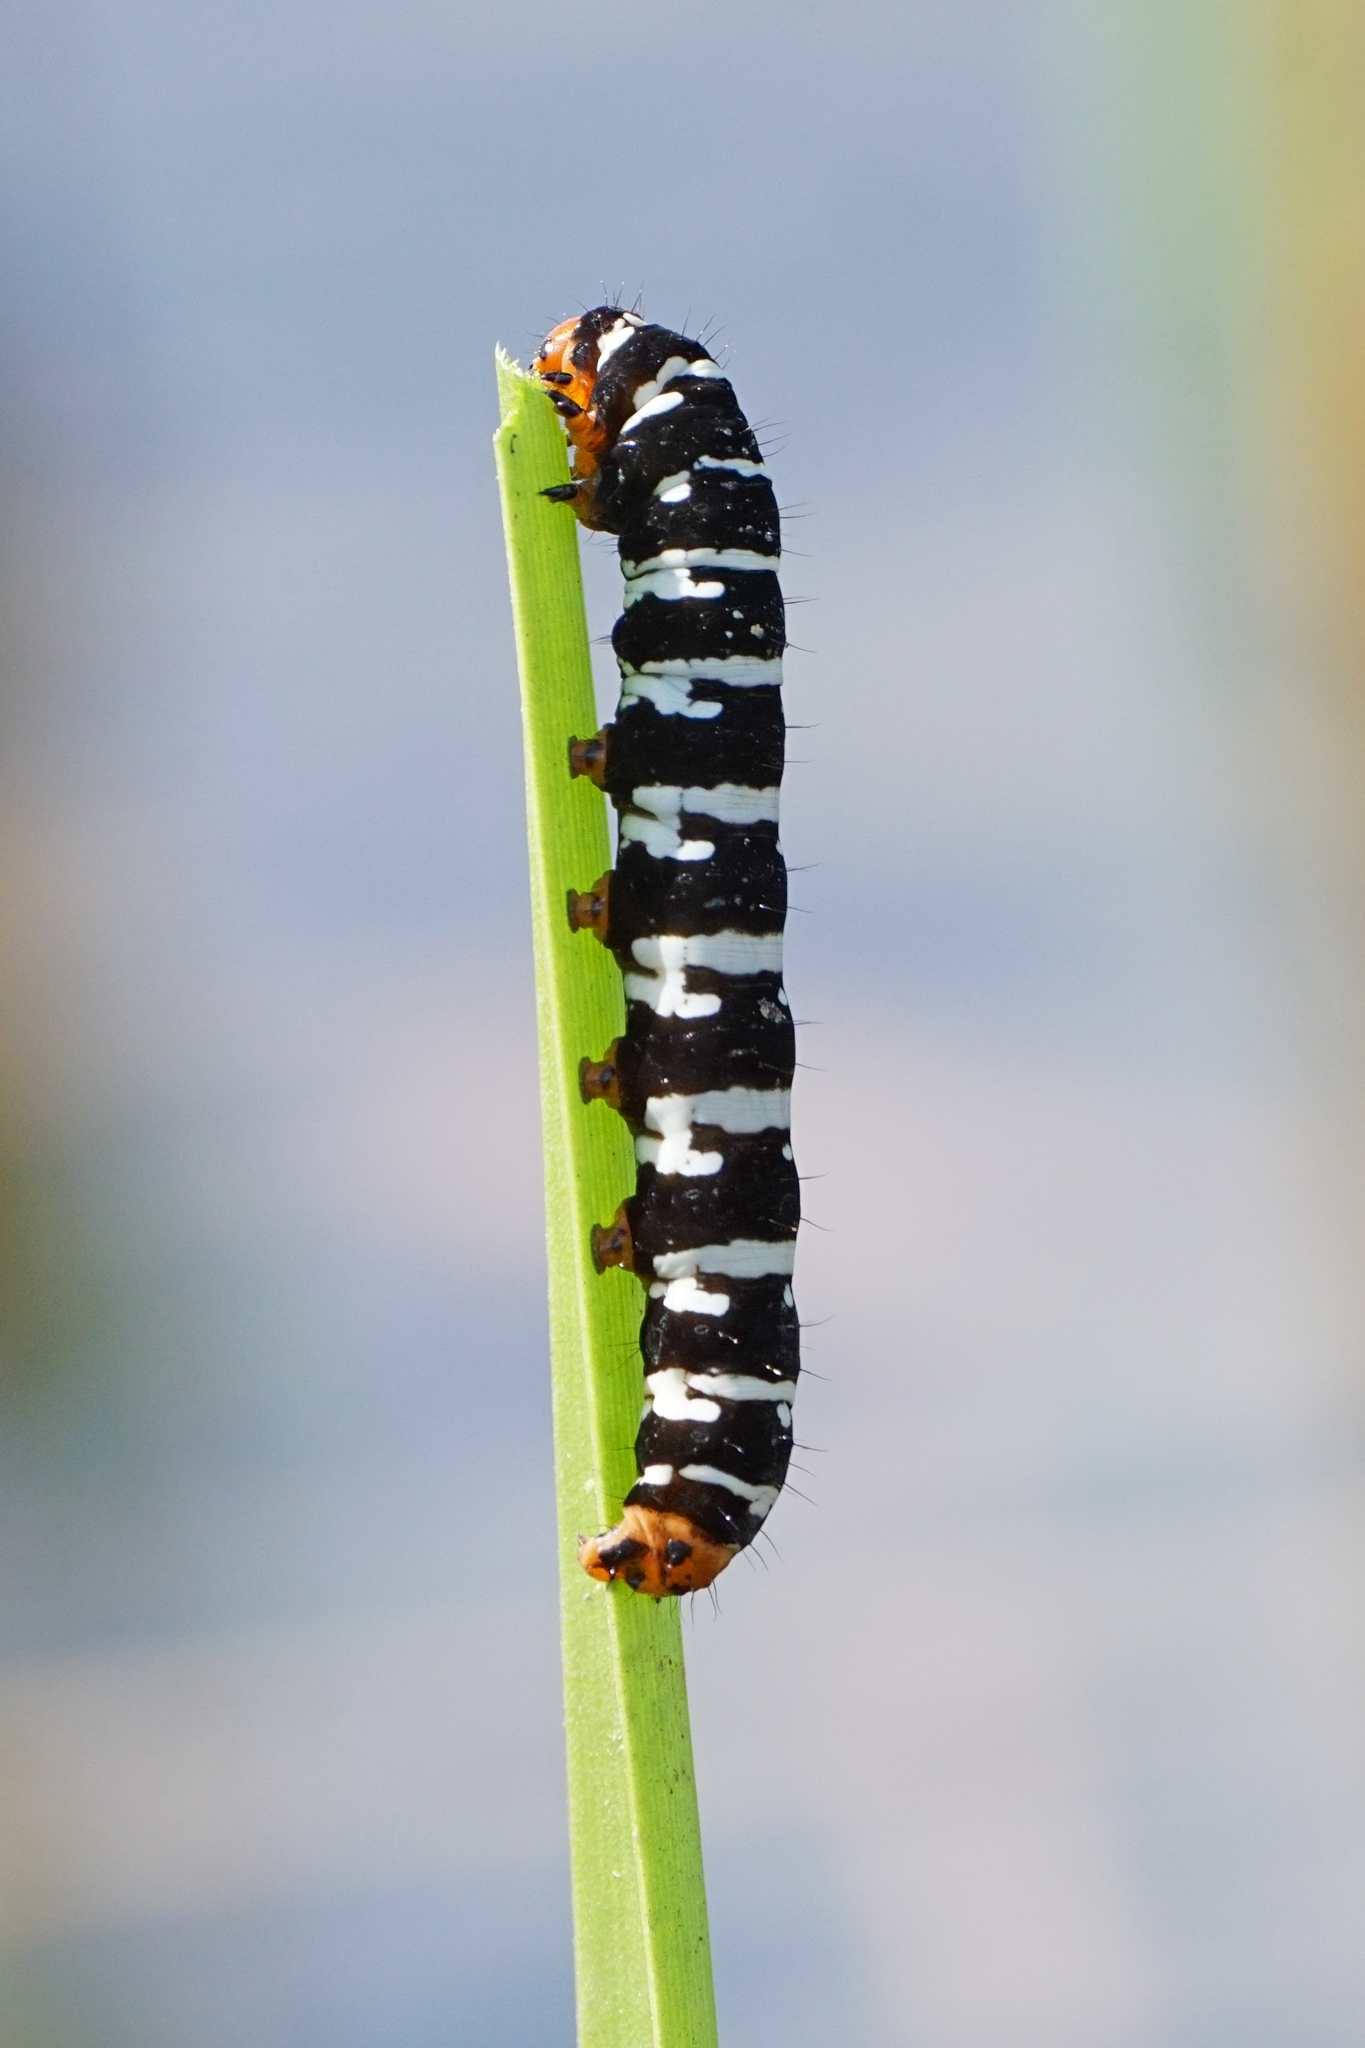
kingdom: Animalia
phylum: Arthropoda
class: Insecta
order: Lepidoptera
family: Noctuidae
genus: Xanthopastis
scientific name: Xanthopastis regnatrix
